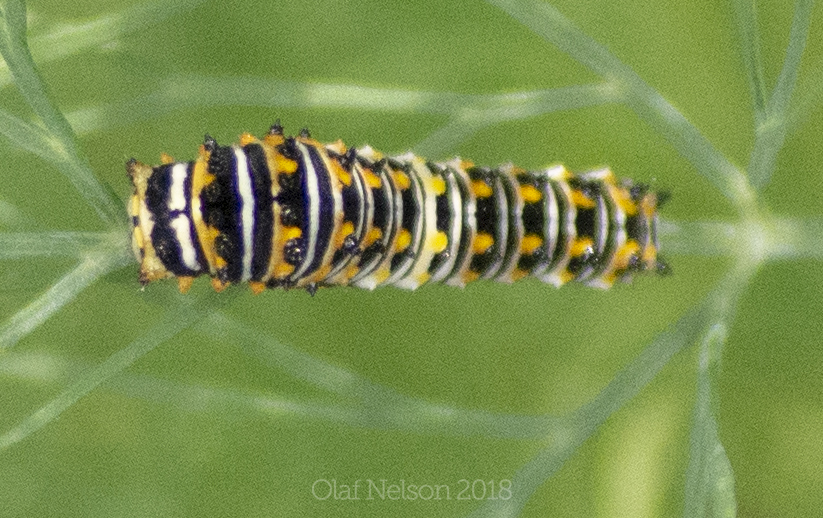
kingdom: Animalia
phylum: Arthropoda
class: Insecta
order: Lepidoptera
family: Papilionidae
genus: Papilio
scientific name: Papilio polyxenes
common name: Black swallowtail
